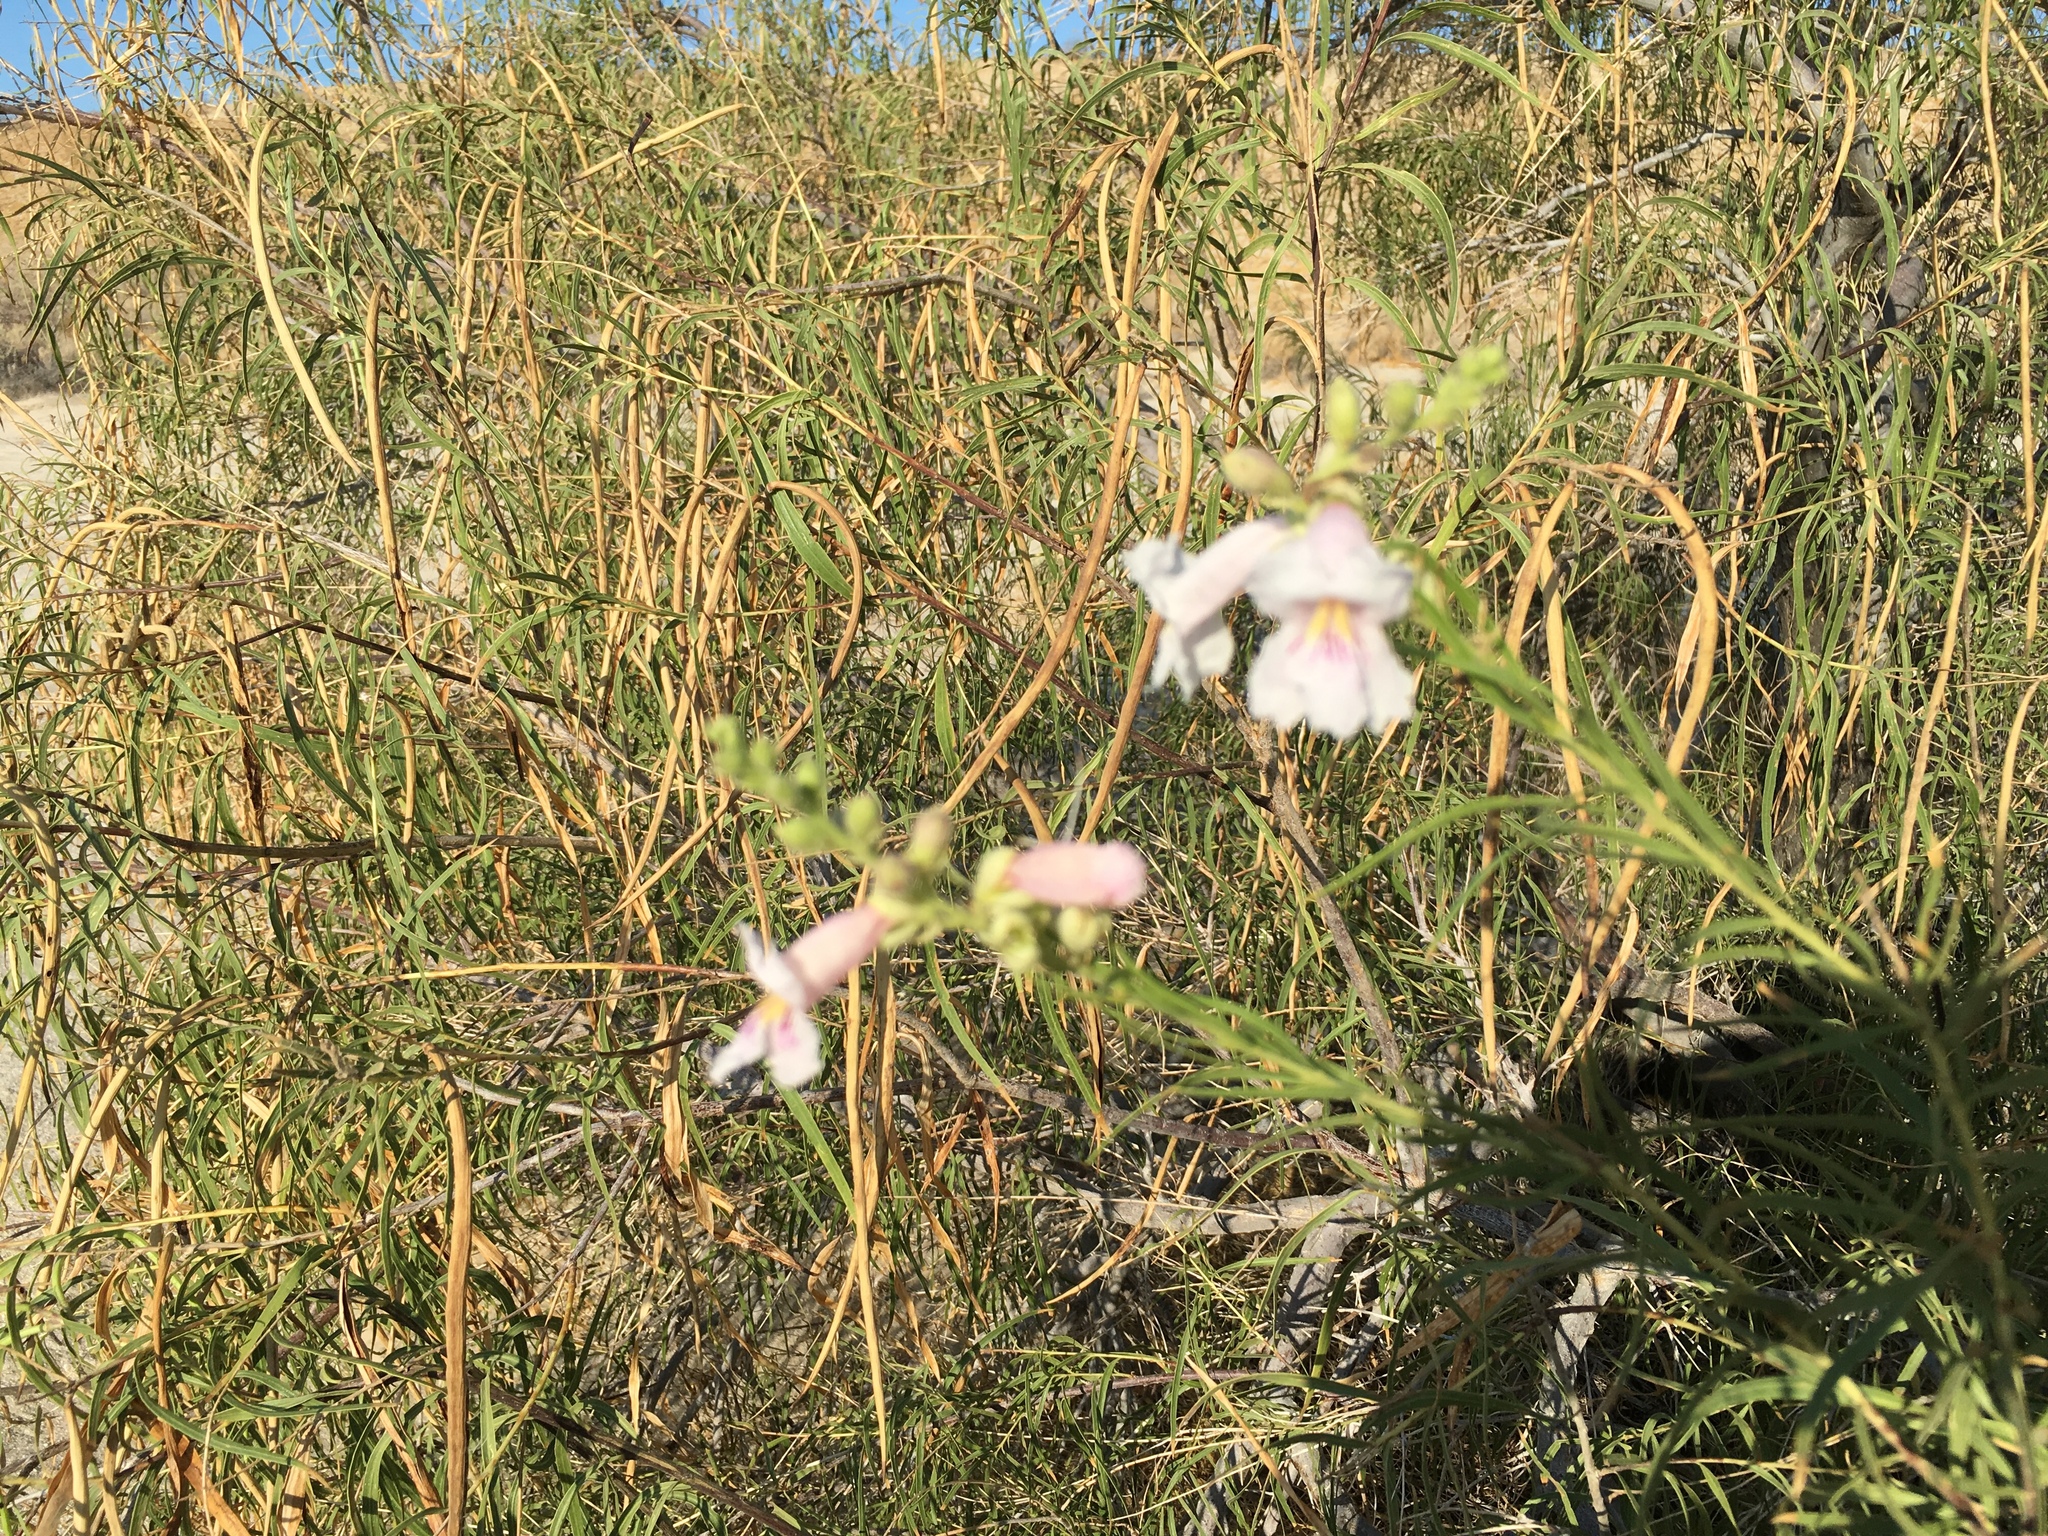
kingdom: Plantae
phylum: Tracheophyta
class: Magnoliopsida
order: Lamiales
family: Bignoniaceae
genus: Chilopsis
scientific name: Chilopsis linearis
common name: Desert-willow
